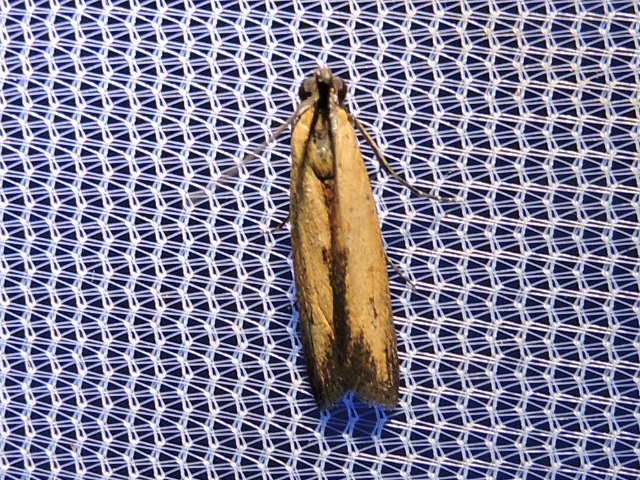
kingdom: Animalia
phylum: Arthropoda
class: Insecta
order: Lepidoptera
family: Pyralidae
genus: Elasmopalpus
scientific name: Elasmopalpus lignosella
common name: Lesser cornstalk borer
